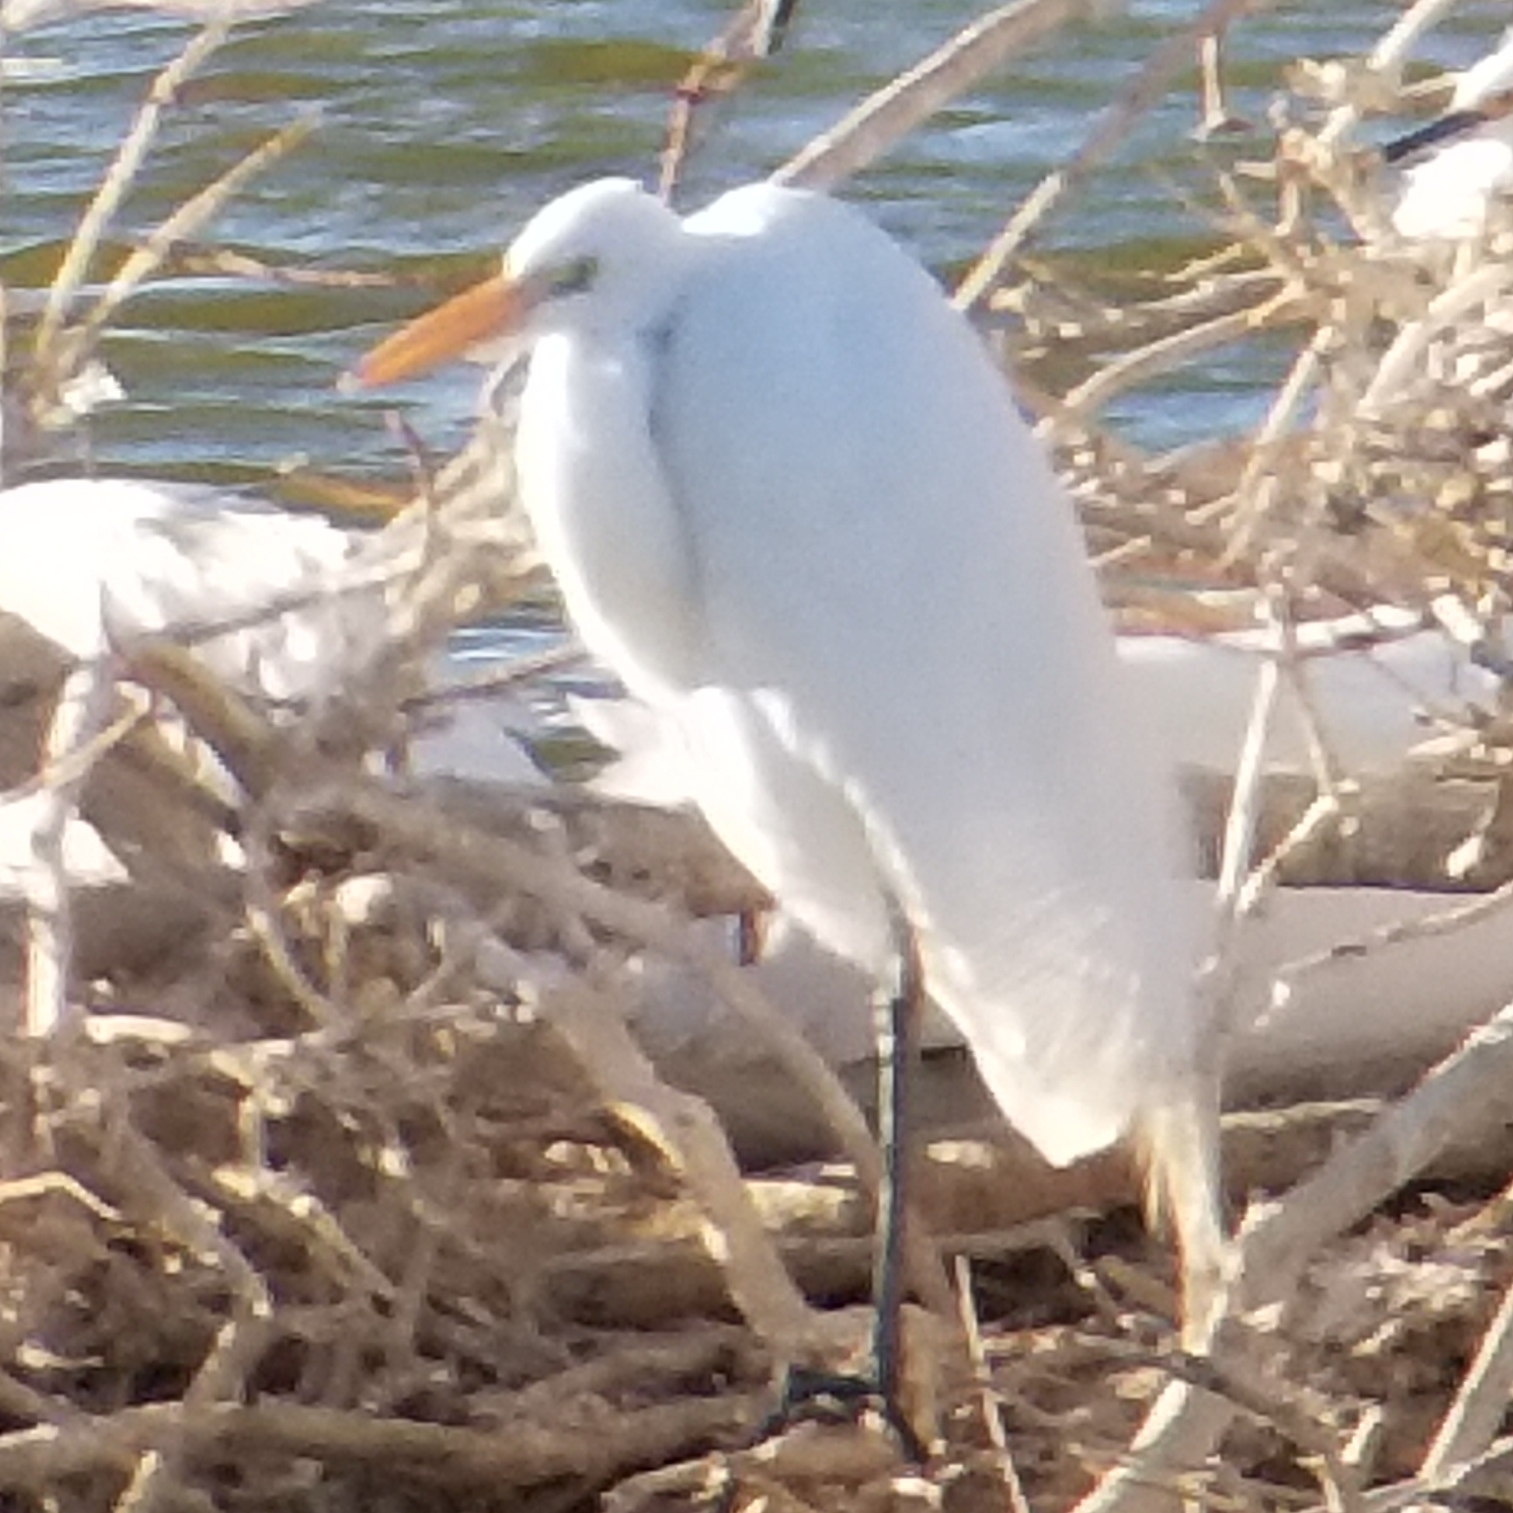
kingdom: Animalia
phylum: Chordata
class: Aves
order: Pelecaniformes
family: Ardeidae
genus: Ardea
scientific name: Ardea alba
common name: Great egret
